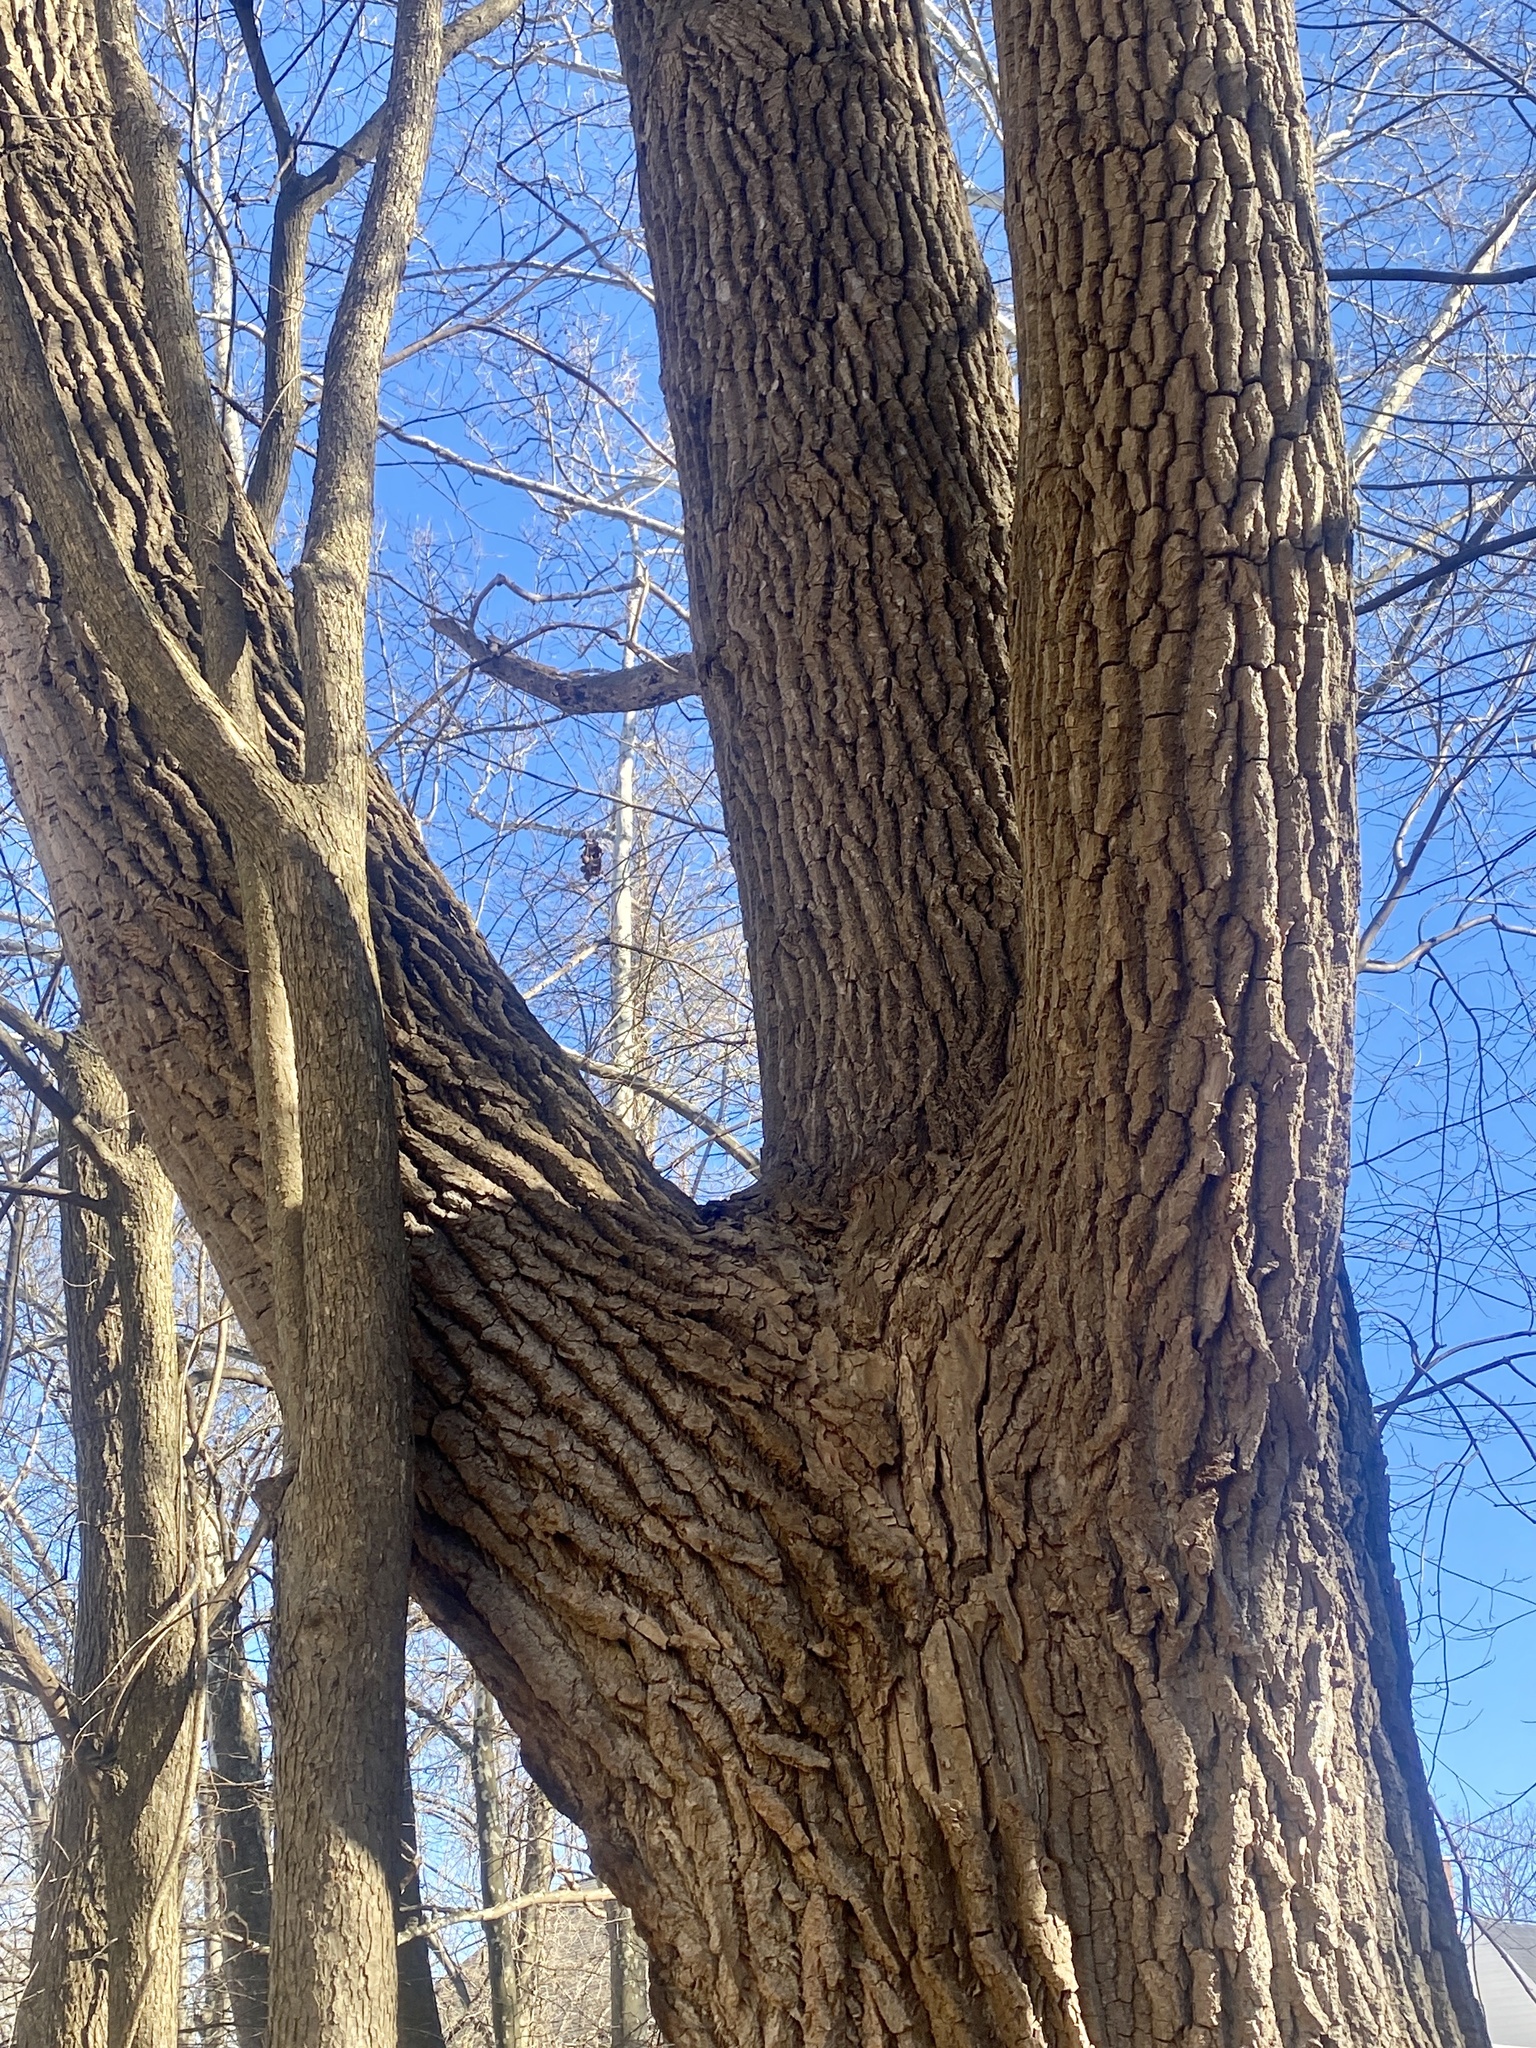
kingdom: Plantae
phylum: Tracheophyta
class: Magnoliopsida
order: Malpighiales
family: Salicaceae
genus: Populus
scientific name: Populus deltoides
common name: Eastern cottonwood
